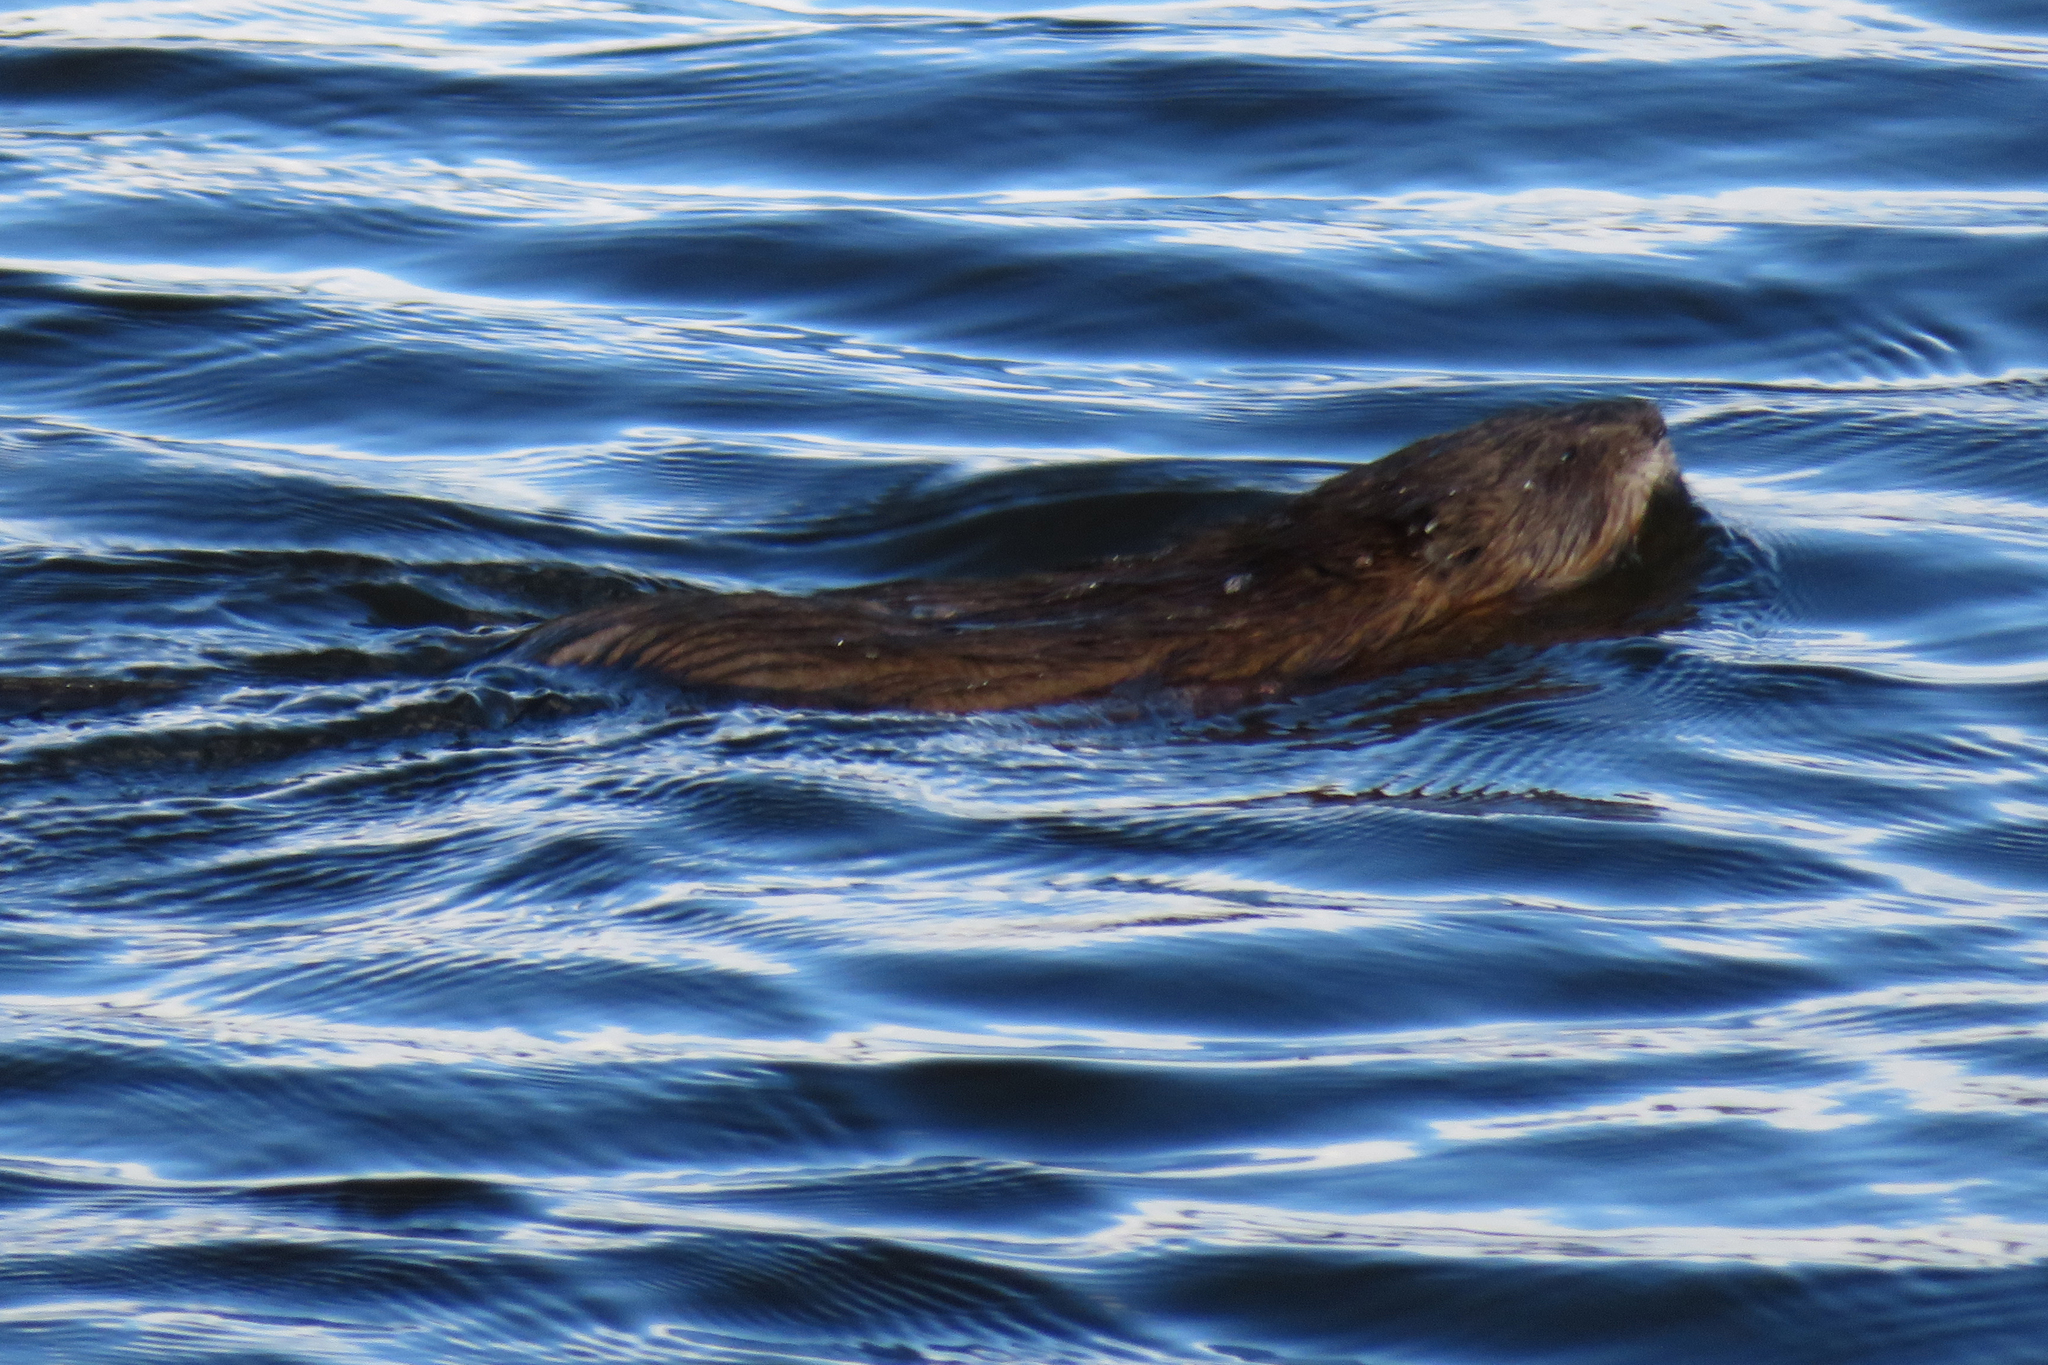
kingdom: Animalia
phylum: Chordata
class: Mammalia
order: Rodentia
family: Cricetidae
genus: Ondatra
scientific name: Ondatra zibethicus
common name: Muskrat
